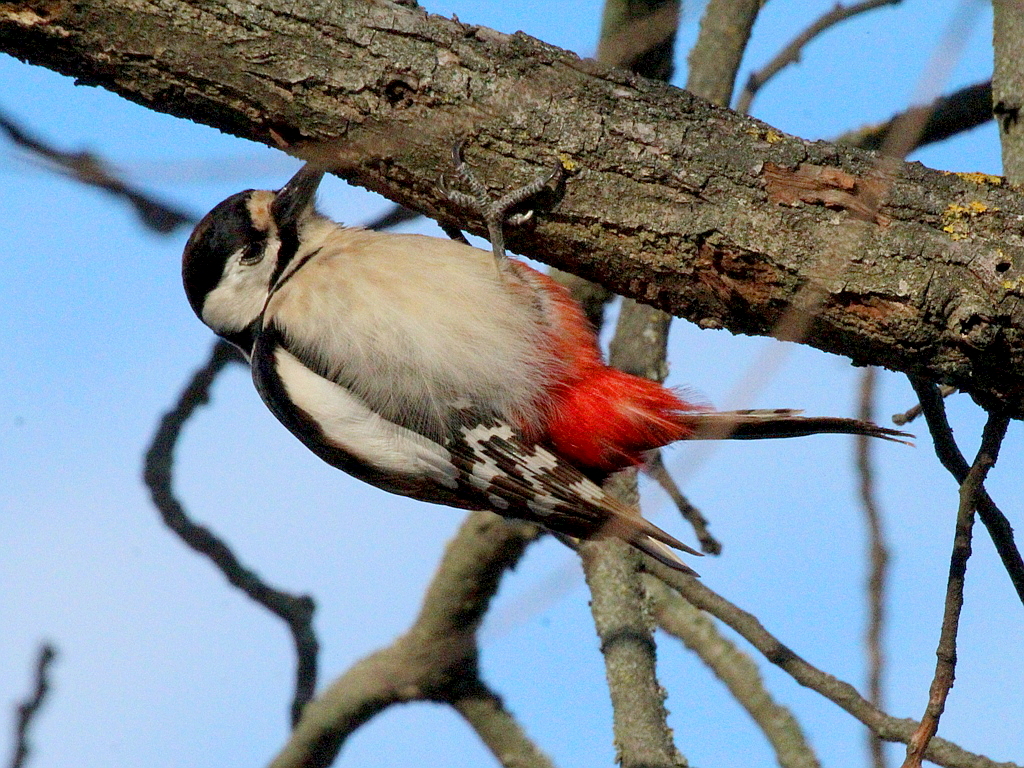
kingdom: Animalia
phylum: Chordata
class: Aves
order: Piciformes
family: Picidae
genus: Dendrocopos
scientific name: Dendrocopos major
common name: Great spotted woodpecker
